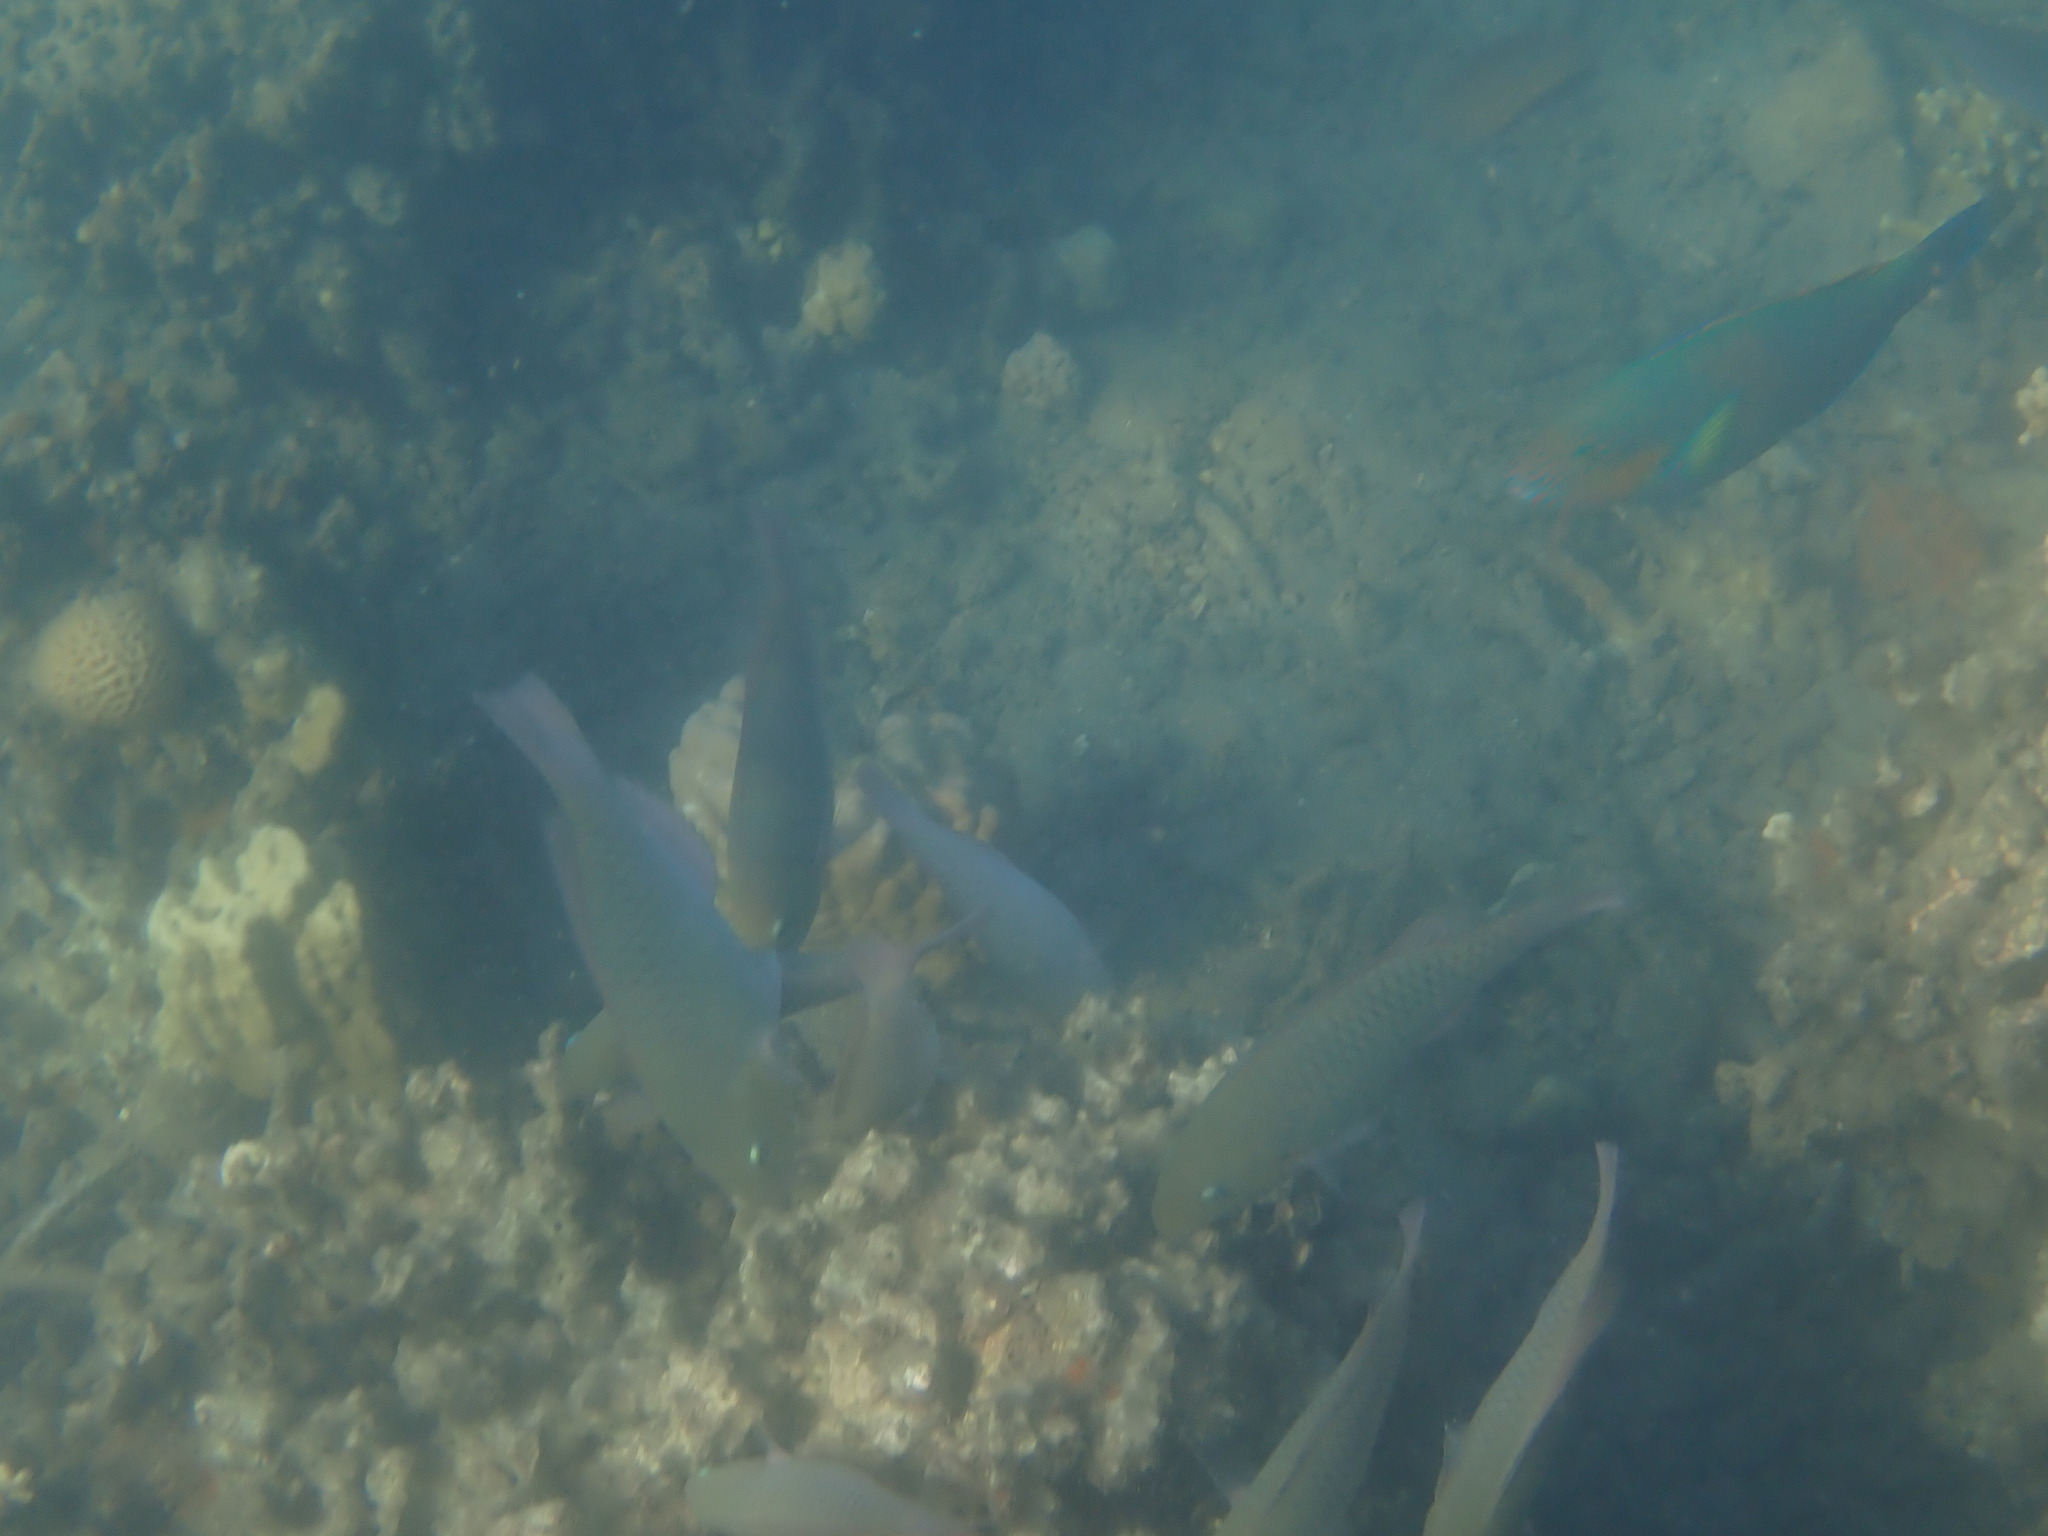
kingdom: Animalia
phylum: Chordata
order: Perciformes
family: Scaridae
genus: Scarus
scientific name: Scarus rivulatus
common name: Surf parrotfish
